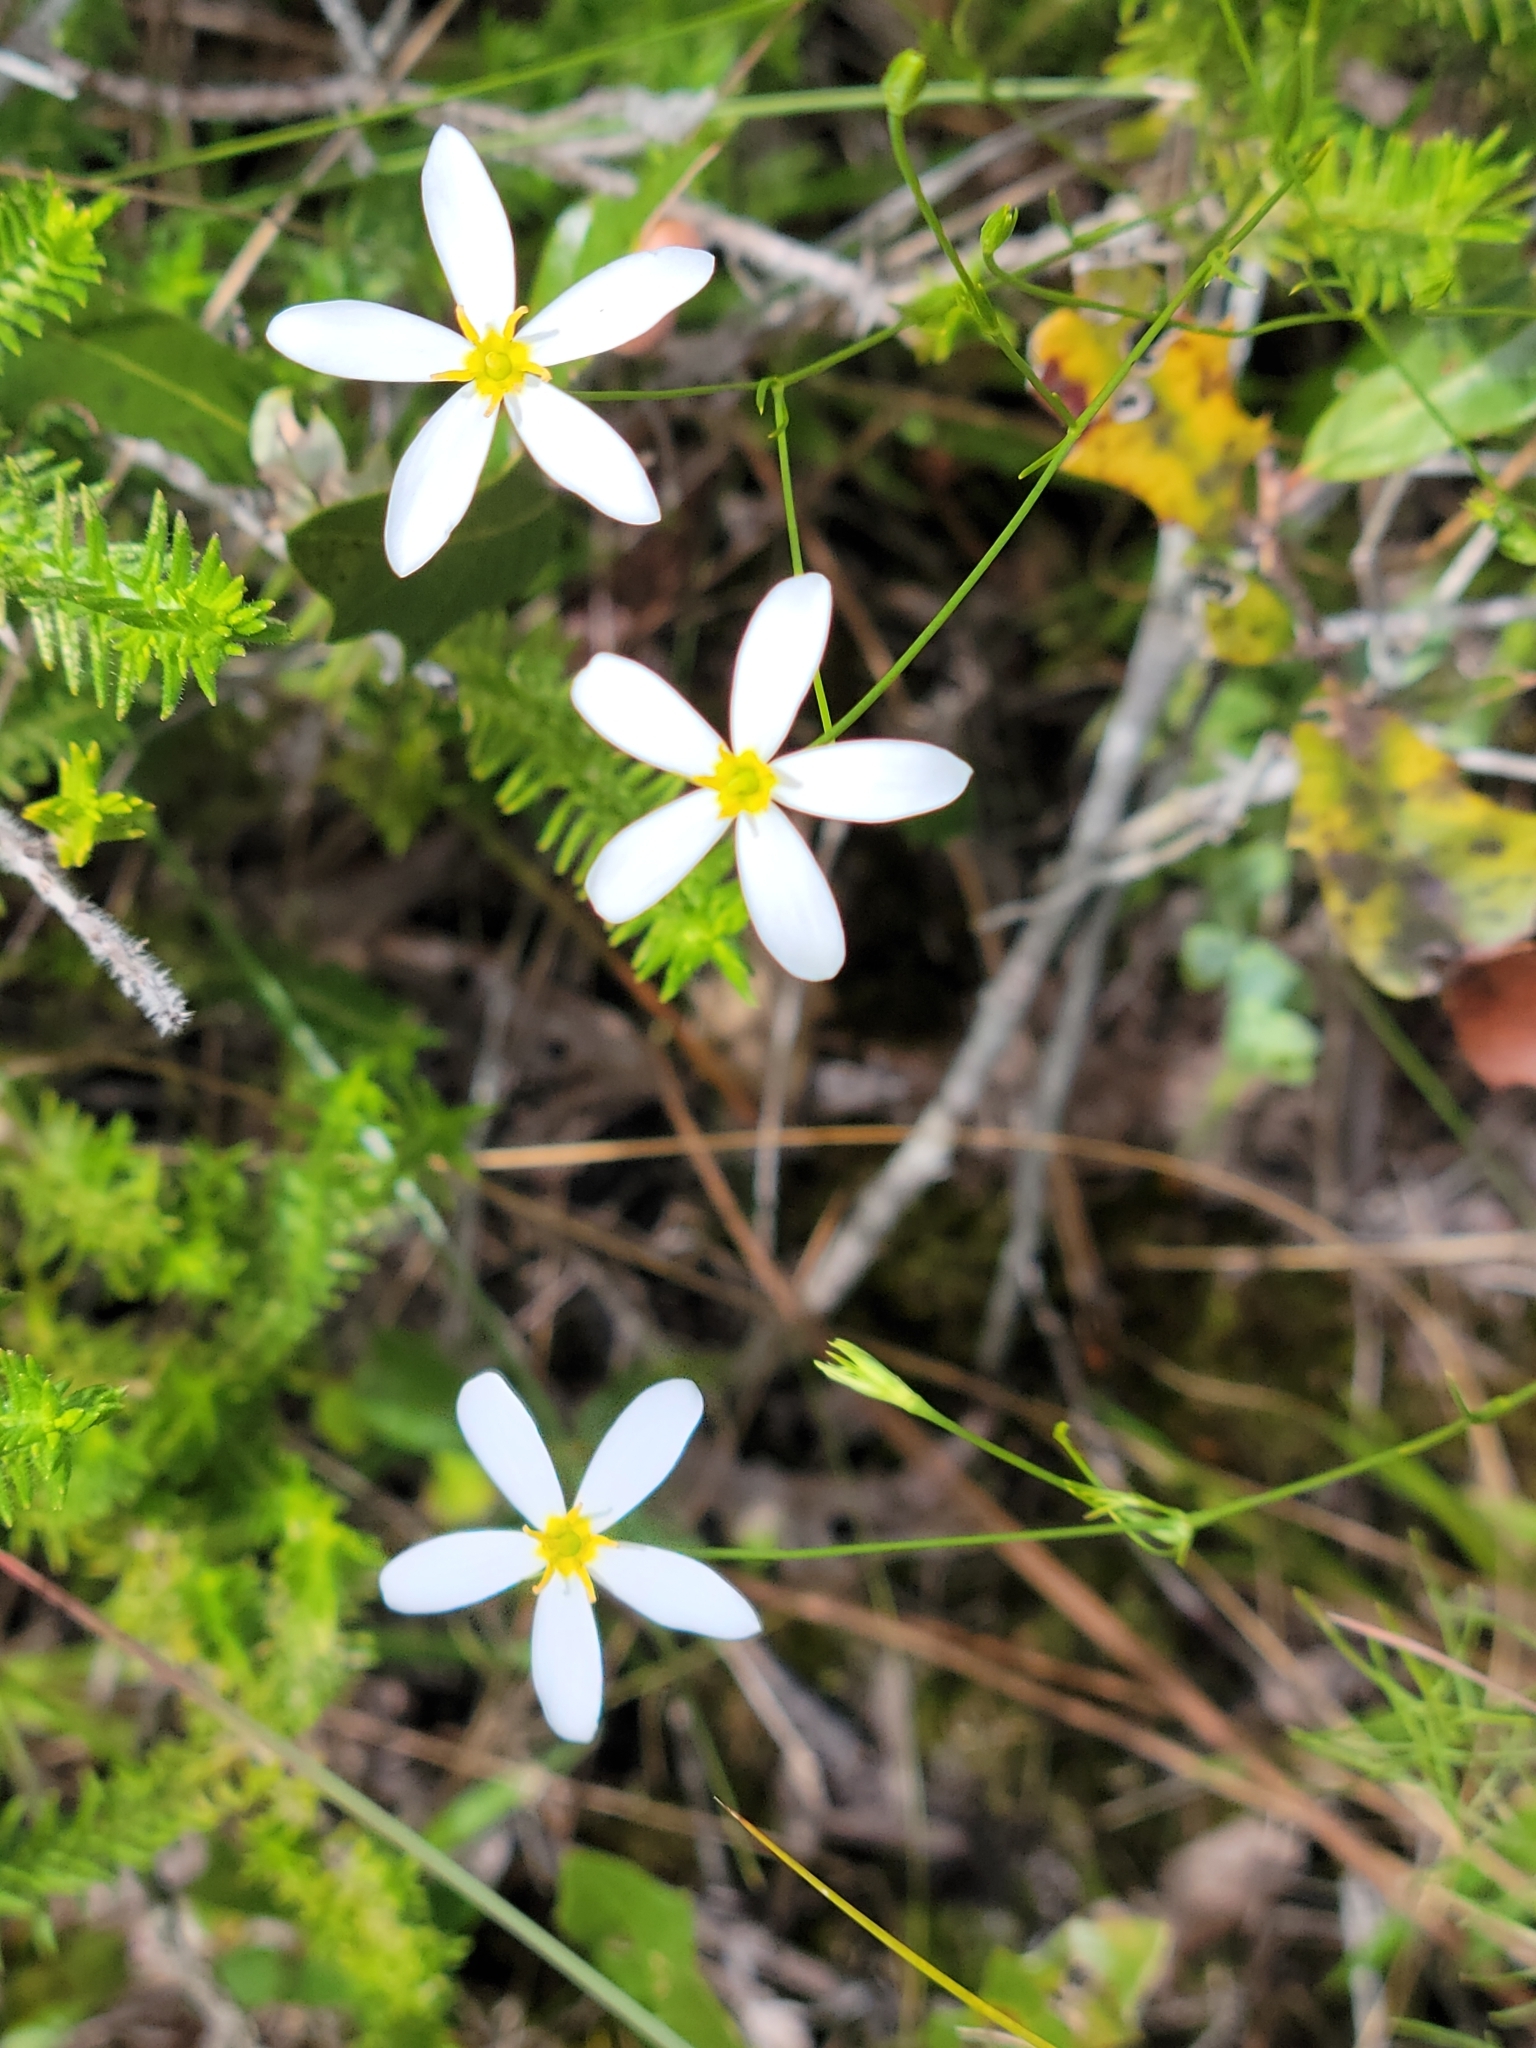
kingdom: Plantae
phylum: Tracheophyta
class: Magnoliopsida
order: Gentianales
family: Gentianaceae
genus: Sabatia
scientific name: Sabatia brevifolia
